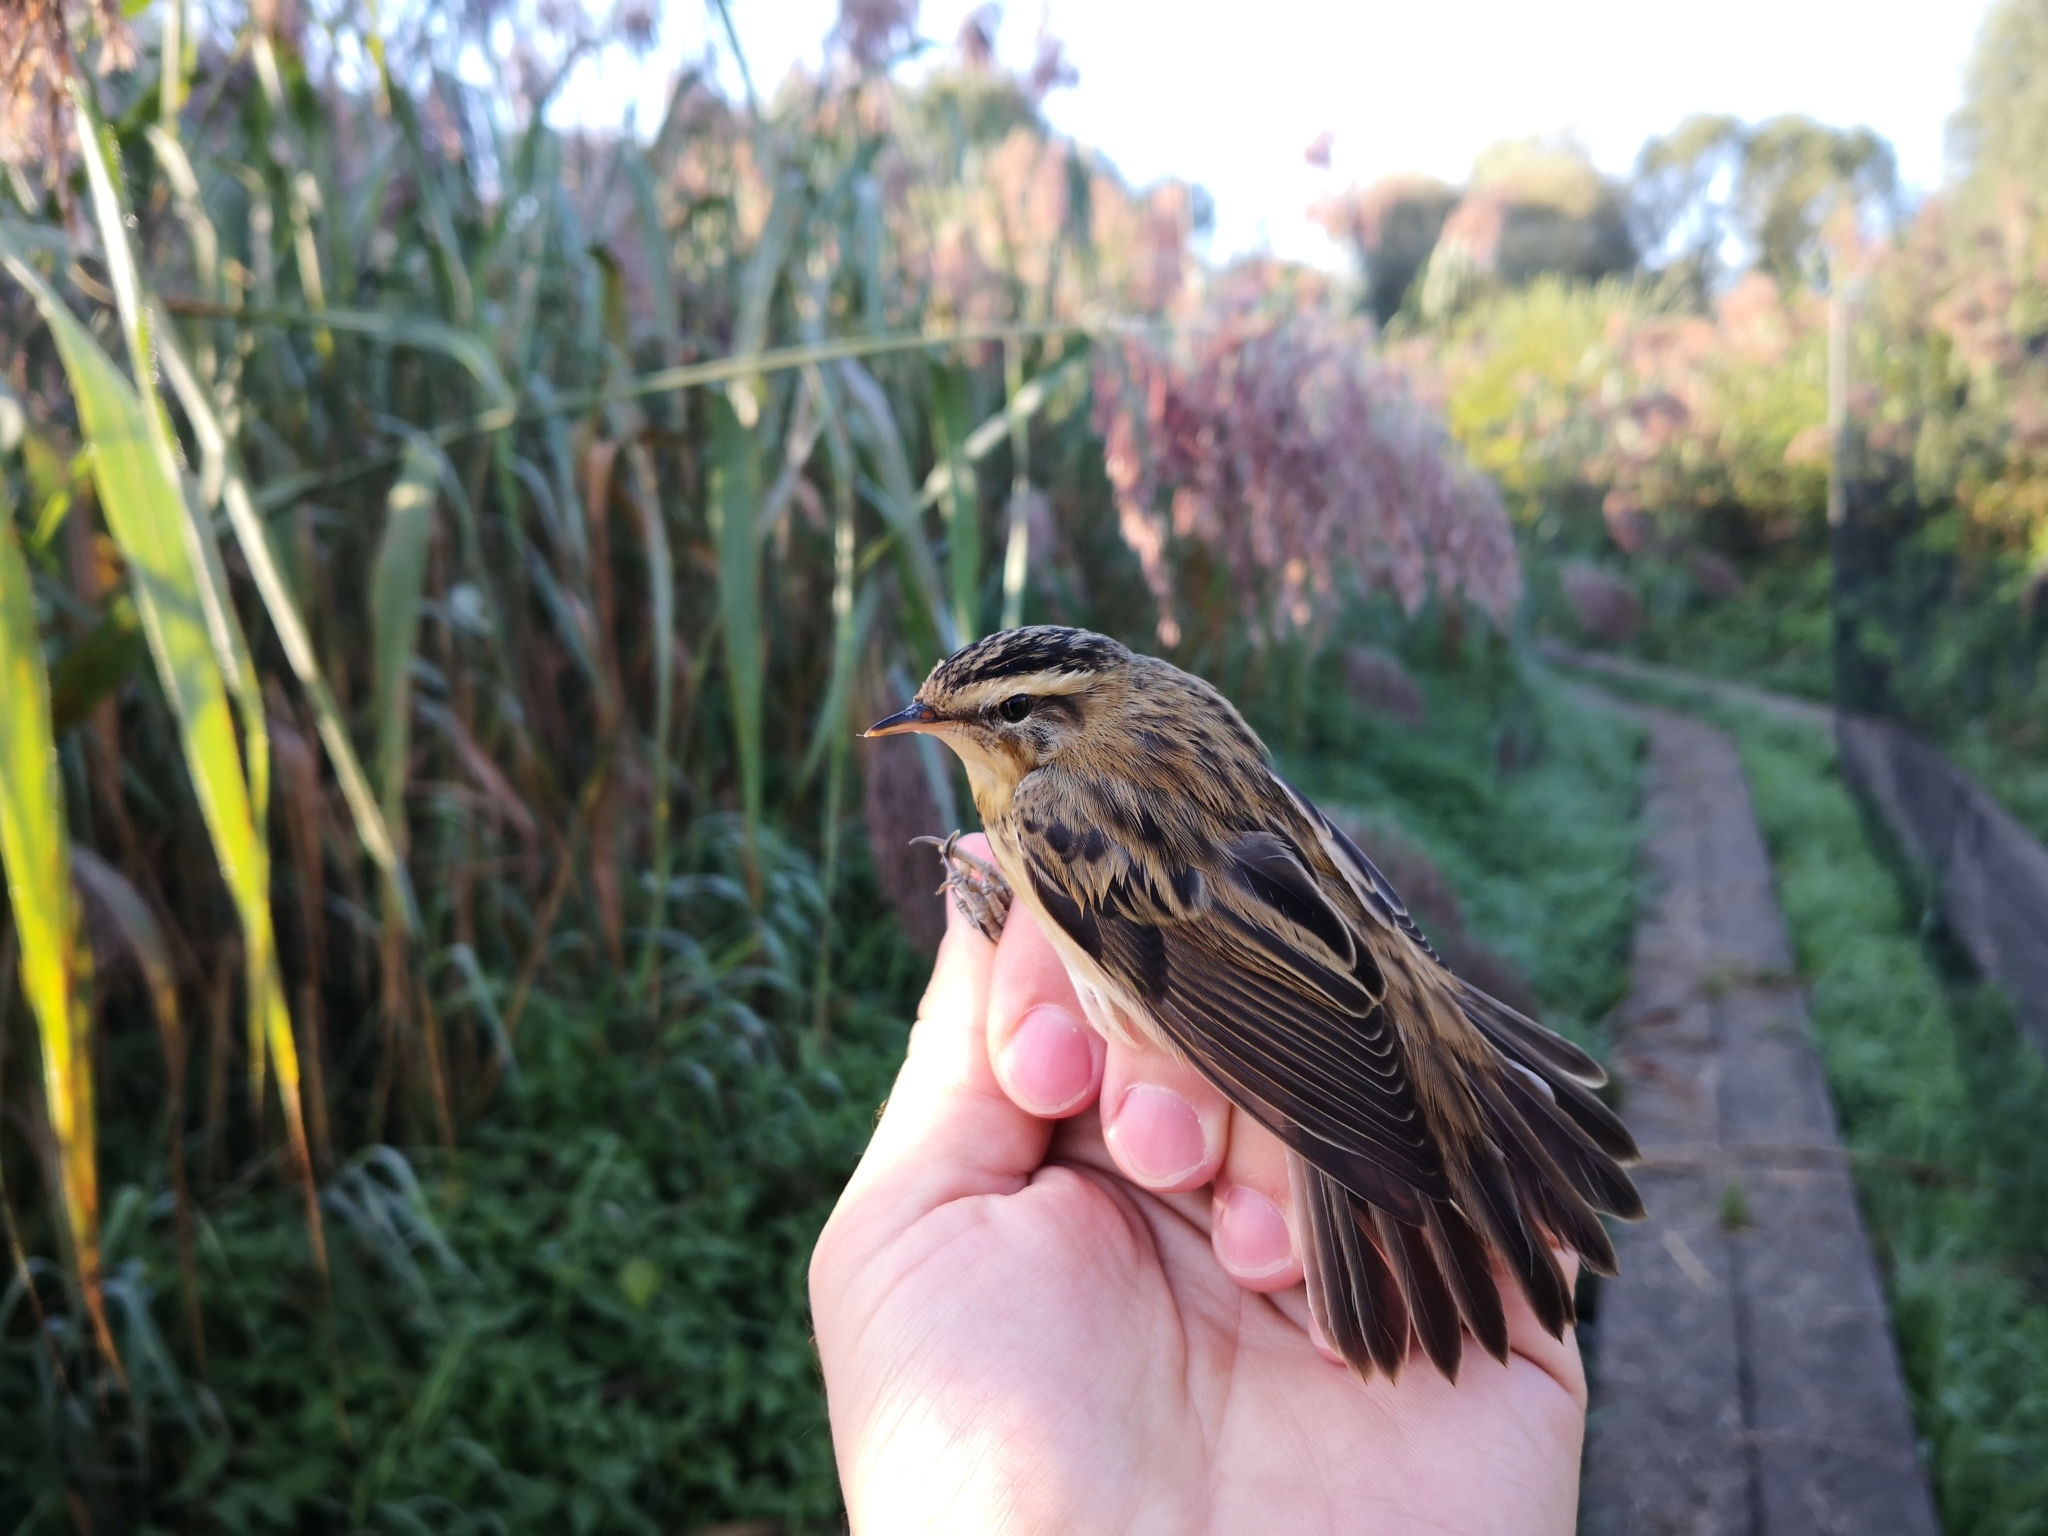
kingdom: Animalia
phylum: Chordata
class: Aves
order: Passeriformes
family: Acrocephalidae
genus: Acrocephalus
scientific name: Acrocephalus schoenobaenus
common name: Sedge warbler
